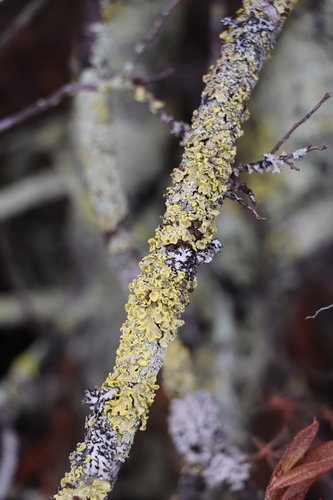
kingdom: Fungi
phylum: Ascomycota
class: Lecanoromycetes
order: Lecanorales
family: Parmeliaceae
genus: Vulpicida
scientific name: Vulpicida pinastri
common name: Powdered sunshine lichen
